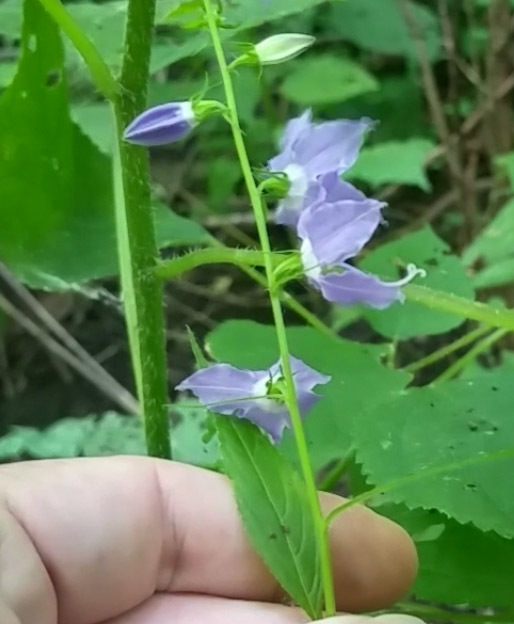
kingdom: Plantae
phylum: Tracheophyta
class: Magnoliopsida
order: Asterales
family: Campanulaceae
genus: Campanulastrum
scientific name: Campanulastrum americanum
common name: American bellflower
